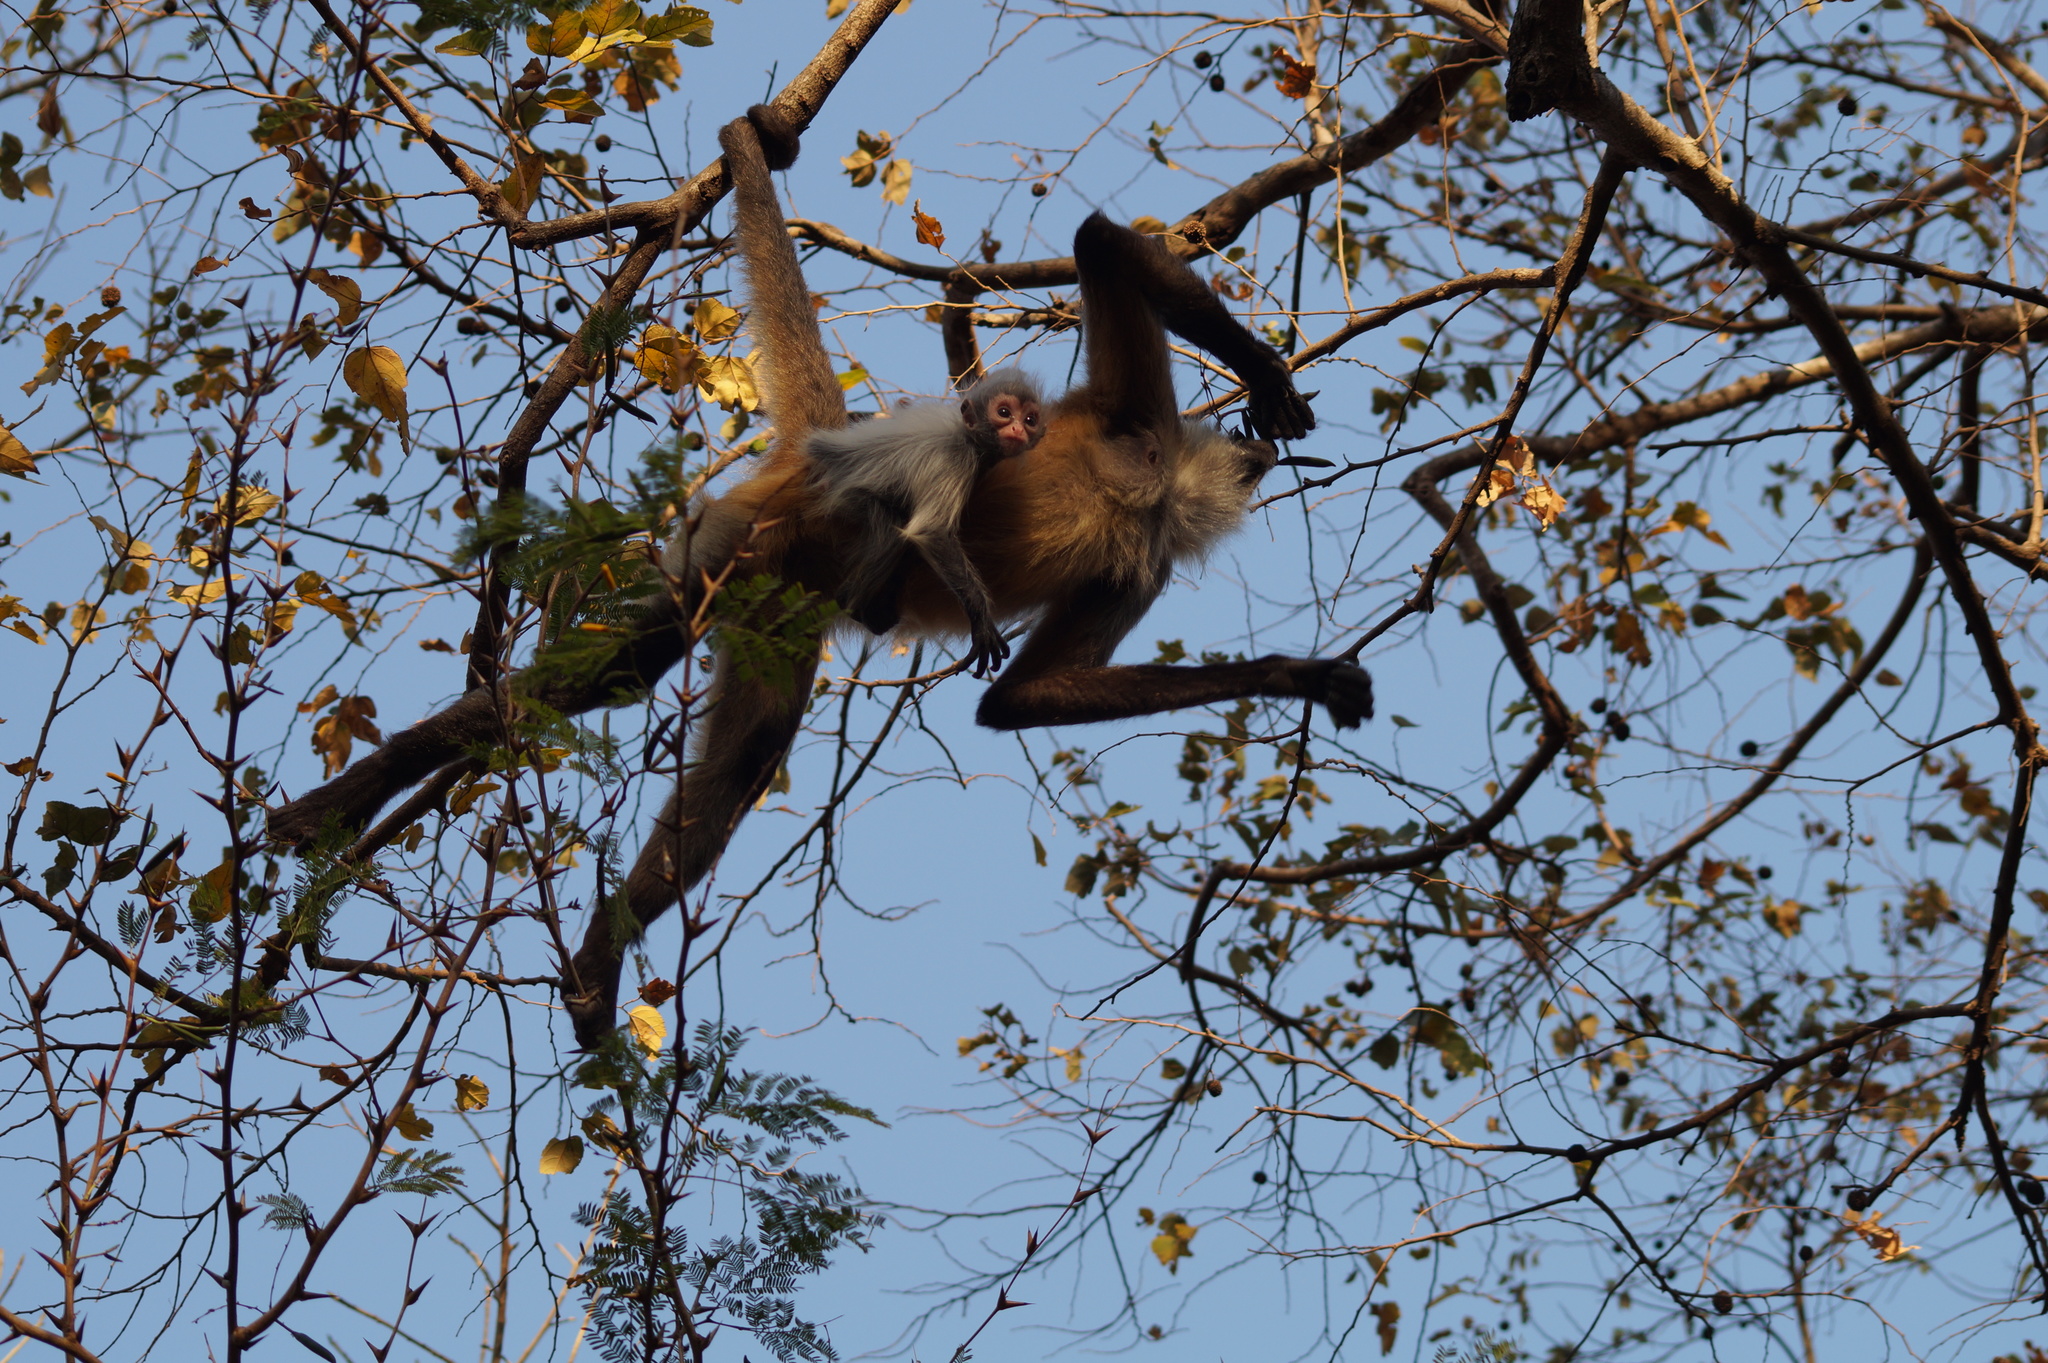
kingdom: Animalia
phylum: Chordata
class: Mammalia
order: Primates
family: Atelidae
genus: Ateles
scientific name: Ateles geoffroyi
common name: Black-handed spider monkey
